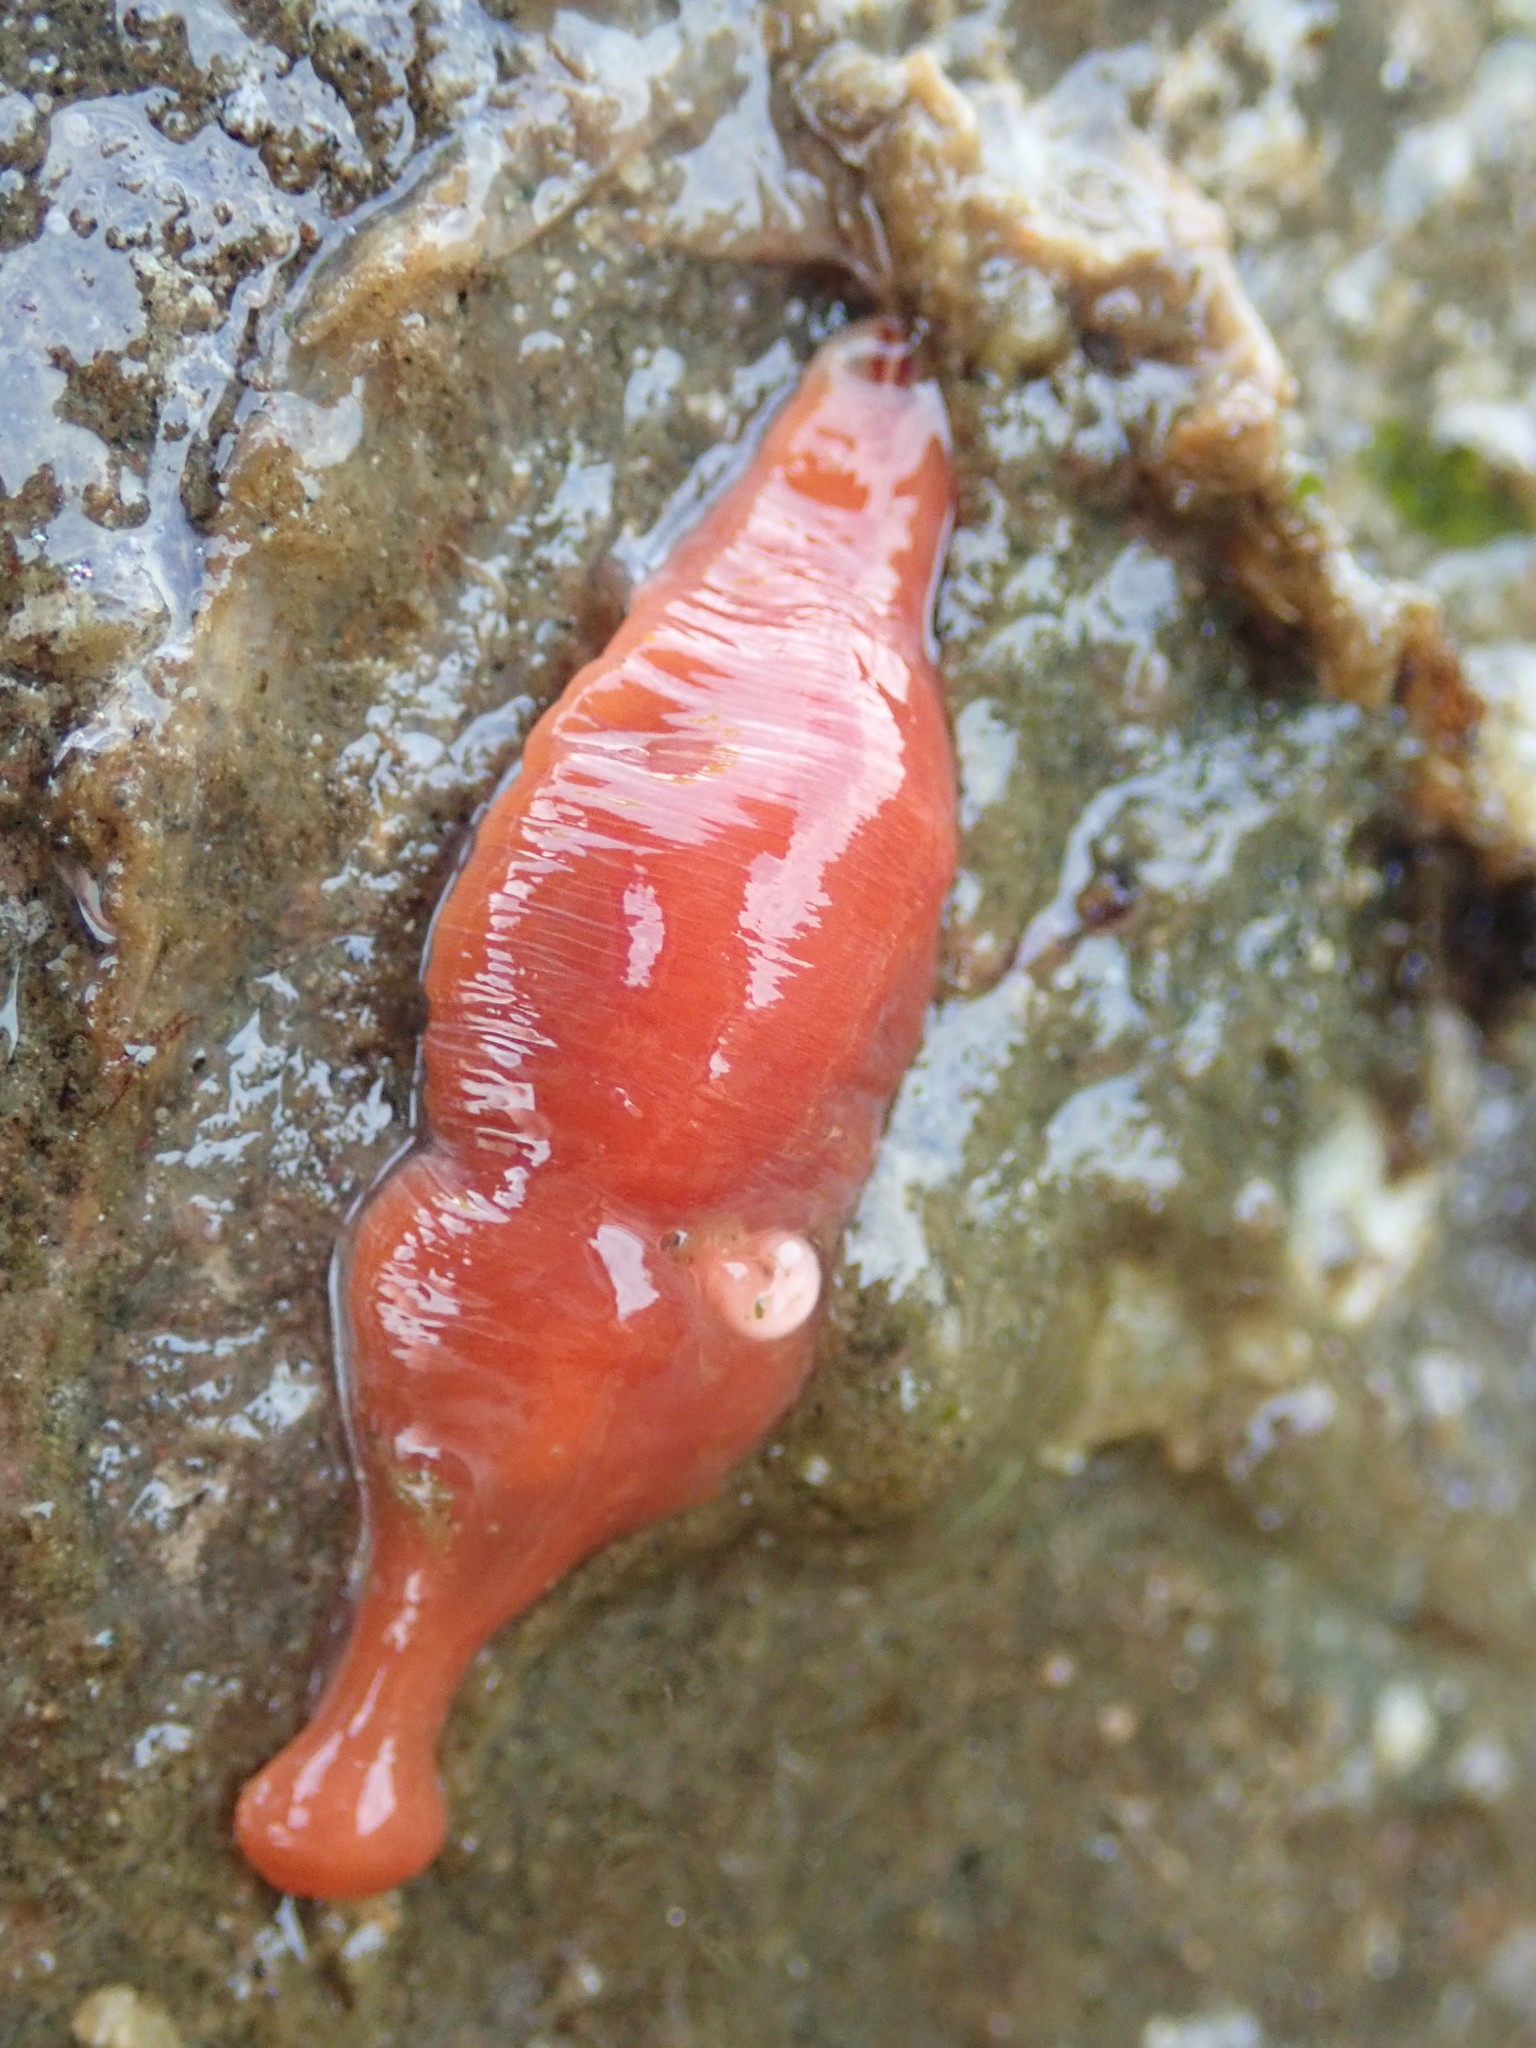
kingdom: Animalia
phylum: Nemertea
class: Hoplonemertea
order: Monostilifera
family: Cratenemertidae
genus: Nipponnemertes
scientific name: Nipponnemertes bimaculata
